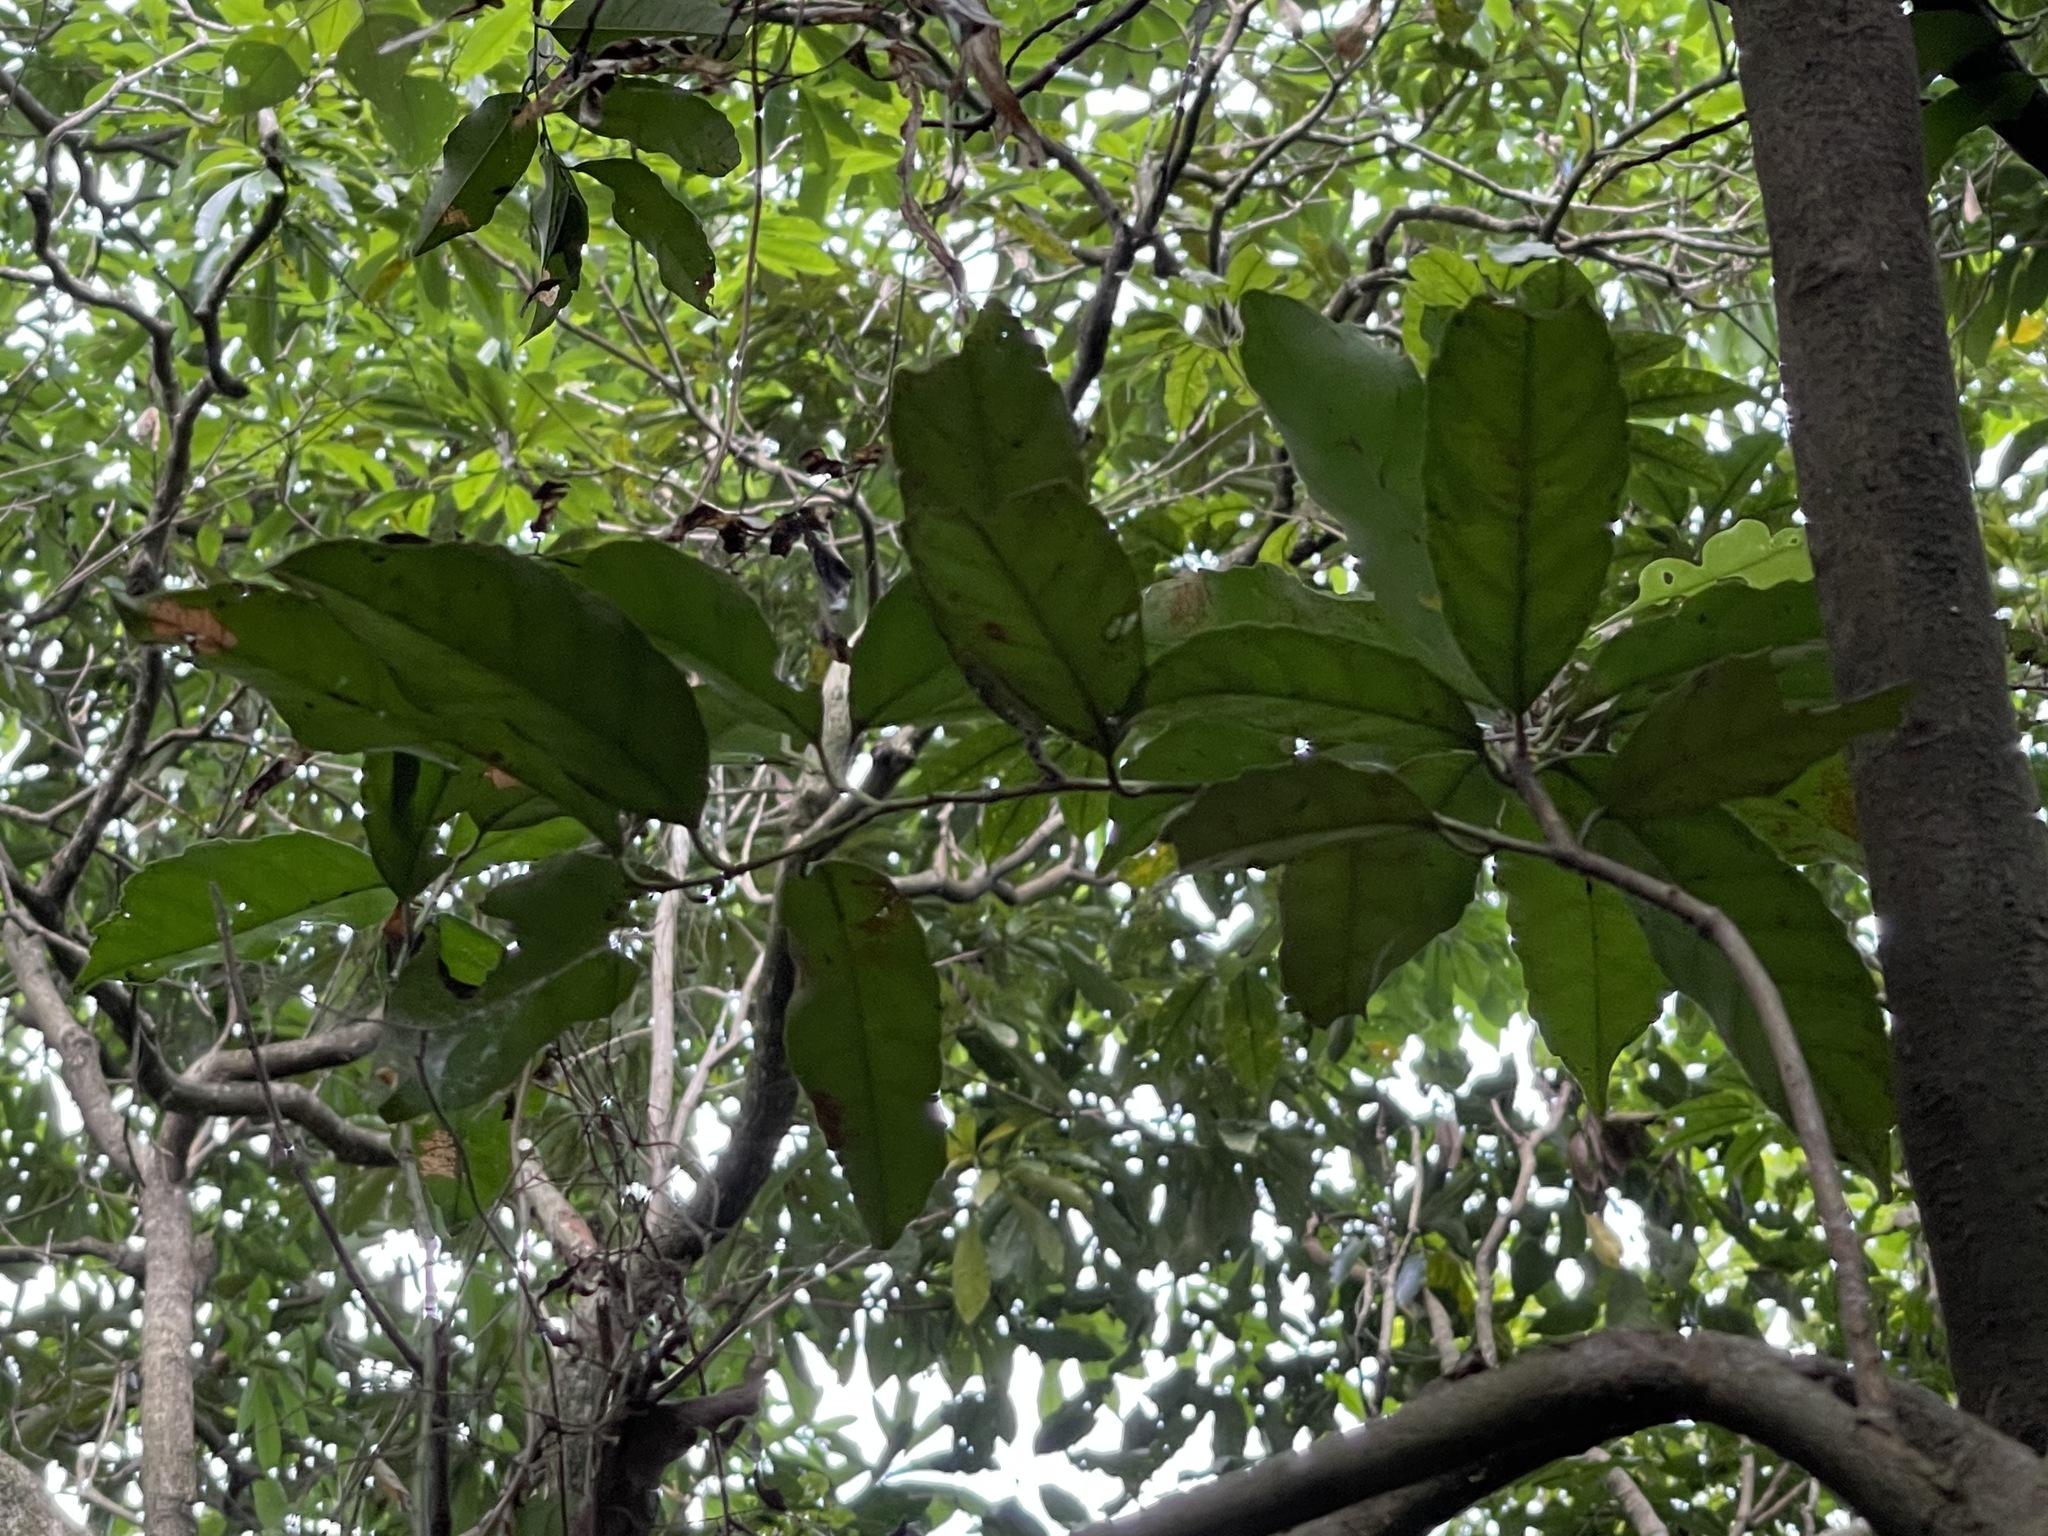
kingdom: Plantae
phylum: Tracheophyta
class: Magnoliopsida
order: Saxifragales
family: Iteaceae
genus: Itea
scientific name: Itea oldhamii
